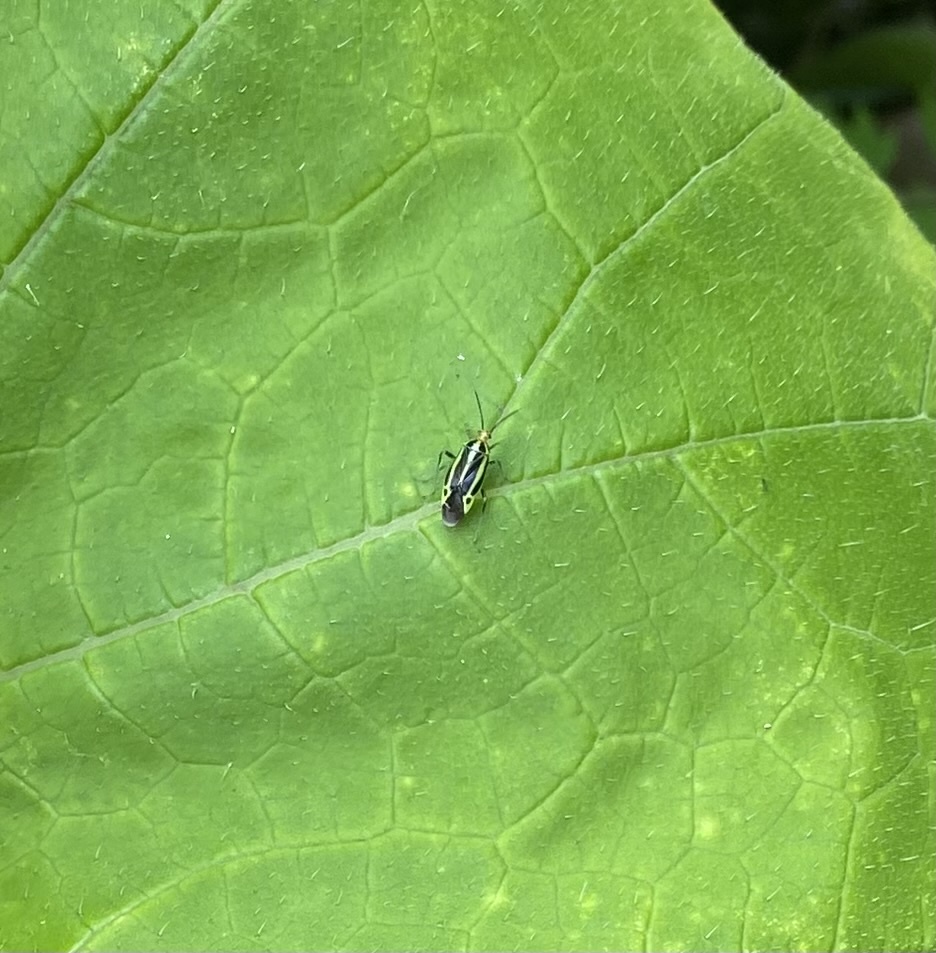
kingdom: Animalia
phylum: Arthropoda
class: Insecta
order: Hemiptera
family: Miridae
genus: Poecilocapsus
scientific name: Poecilocapsus lineatus
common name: Four-lined plant bug
